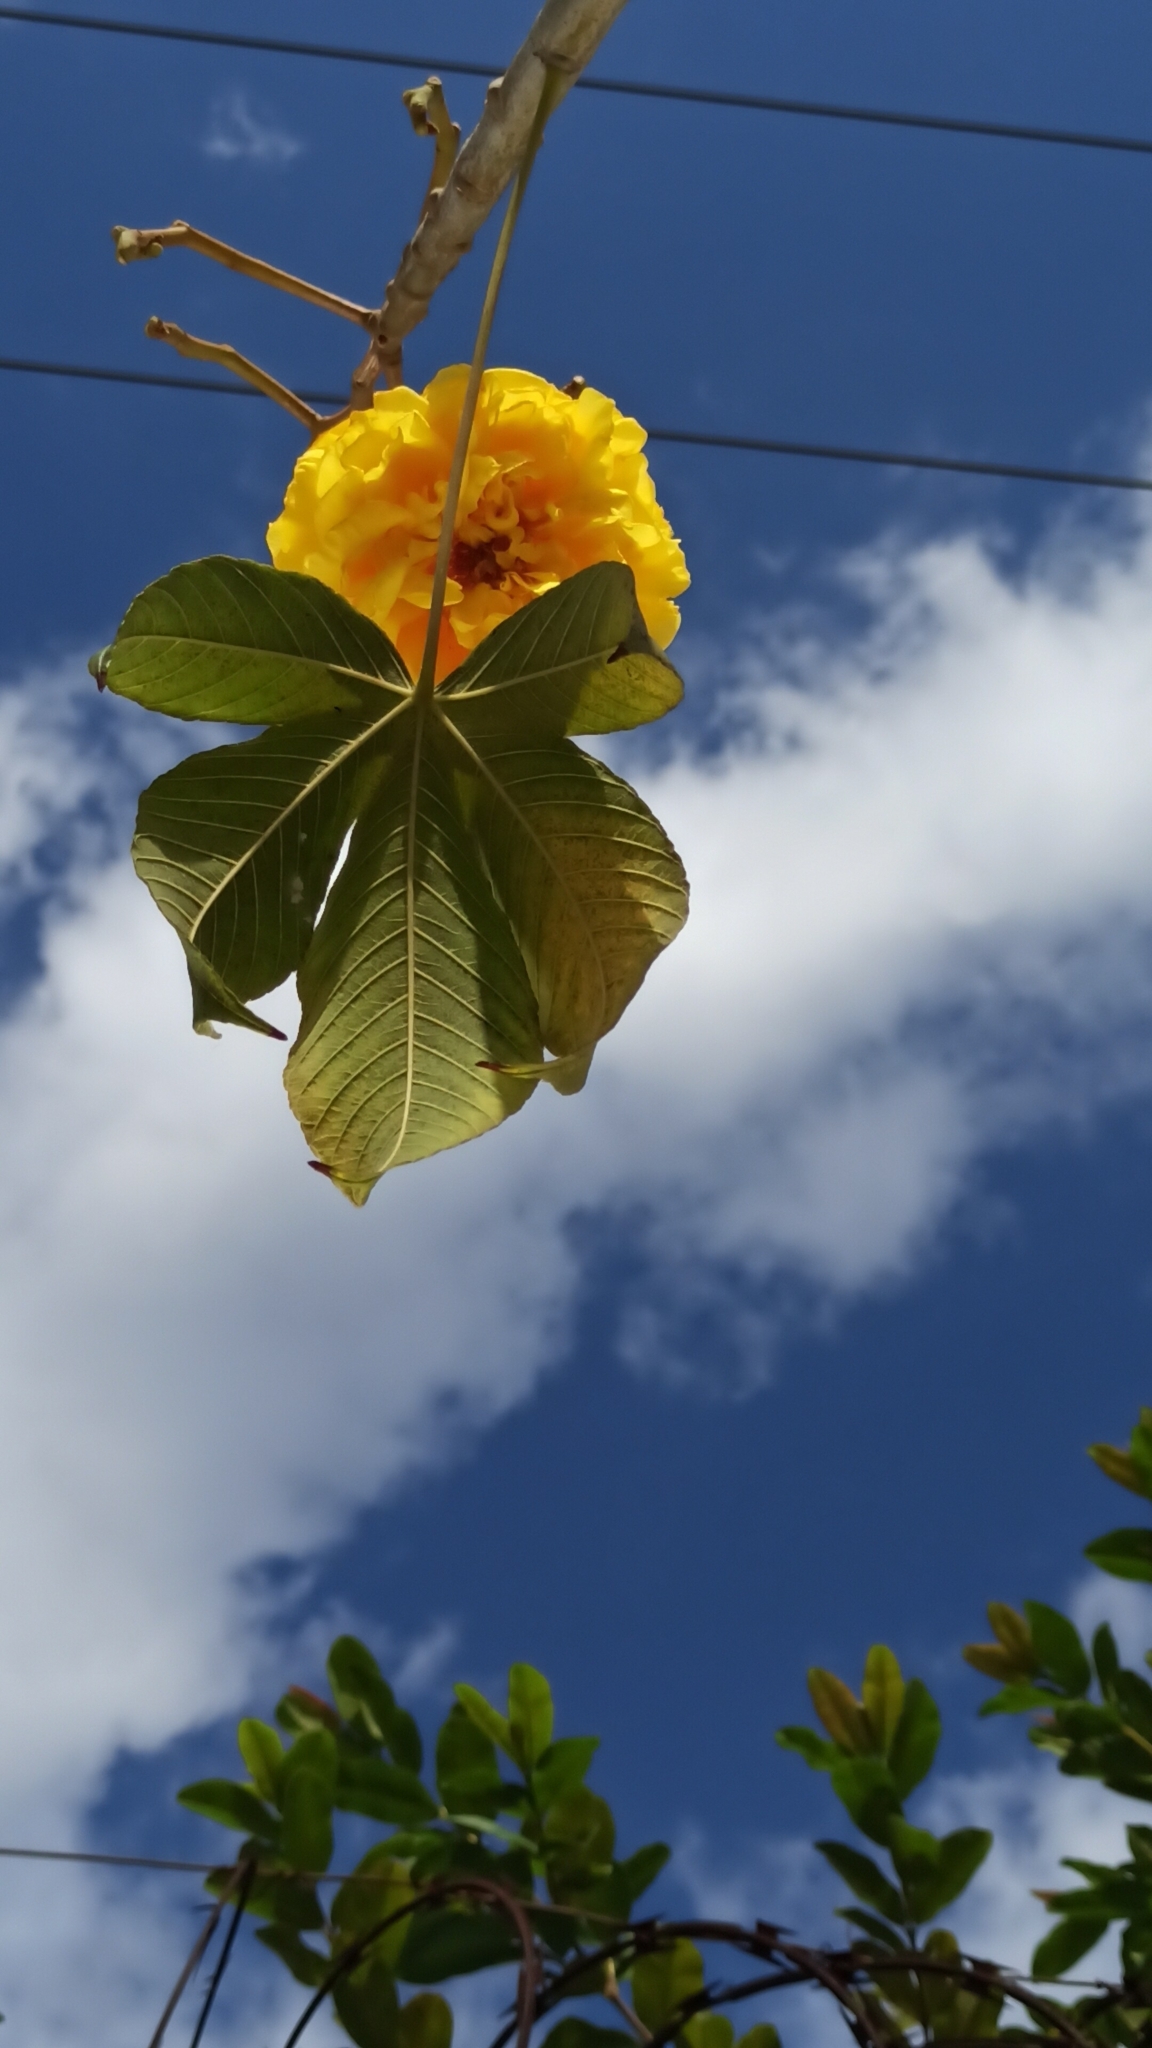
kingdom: Plantae
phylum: Tracheophyta
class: Magnoliopsida
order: Malvales
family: Cochlospermaceae
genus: Cochlospermum
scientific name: Cochlospermum vitifolium
